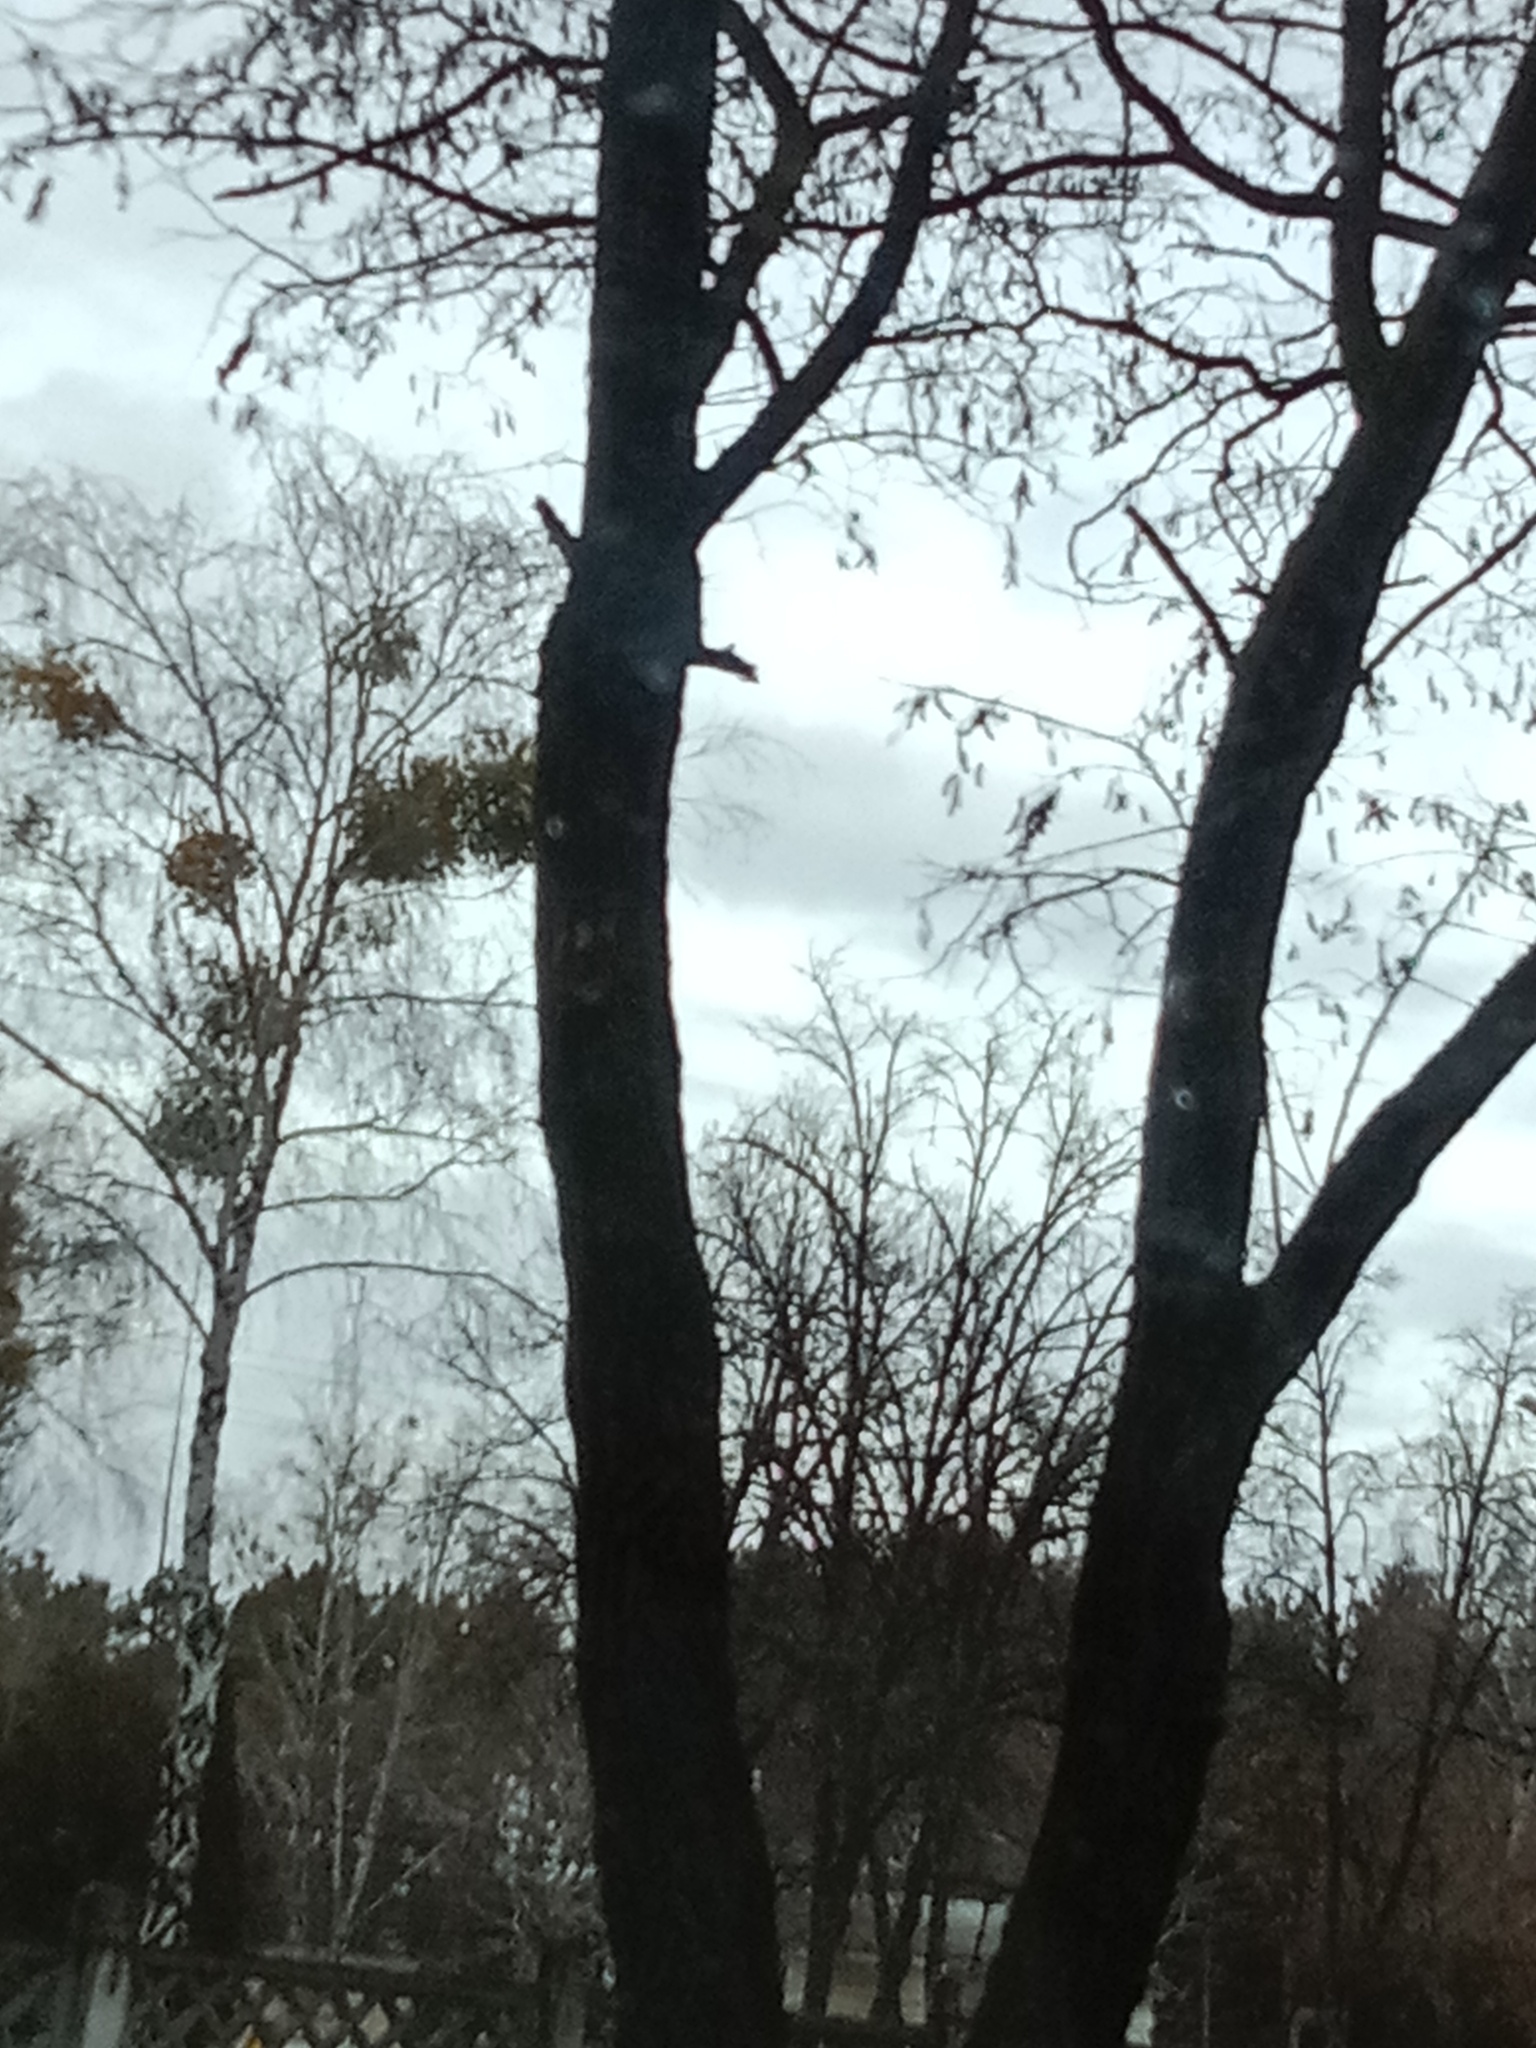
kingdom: Plantae
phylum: Tracheophyta
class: Magnoliopsida
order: Santalales
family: Viscaceae
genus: Viscum
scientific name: Viscum album
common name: Mistletoe
